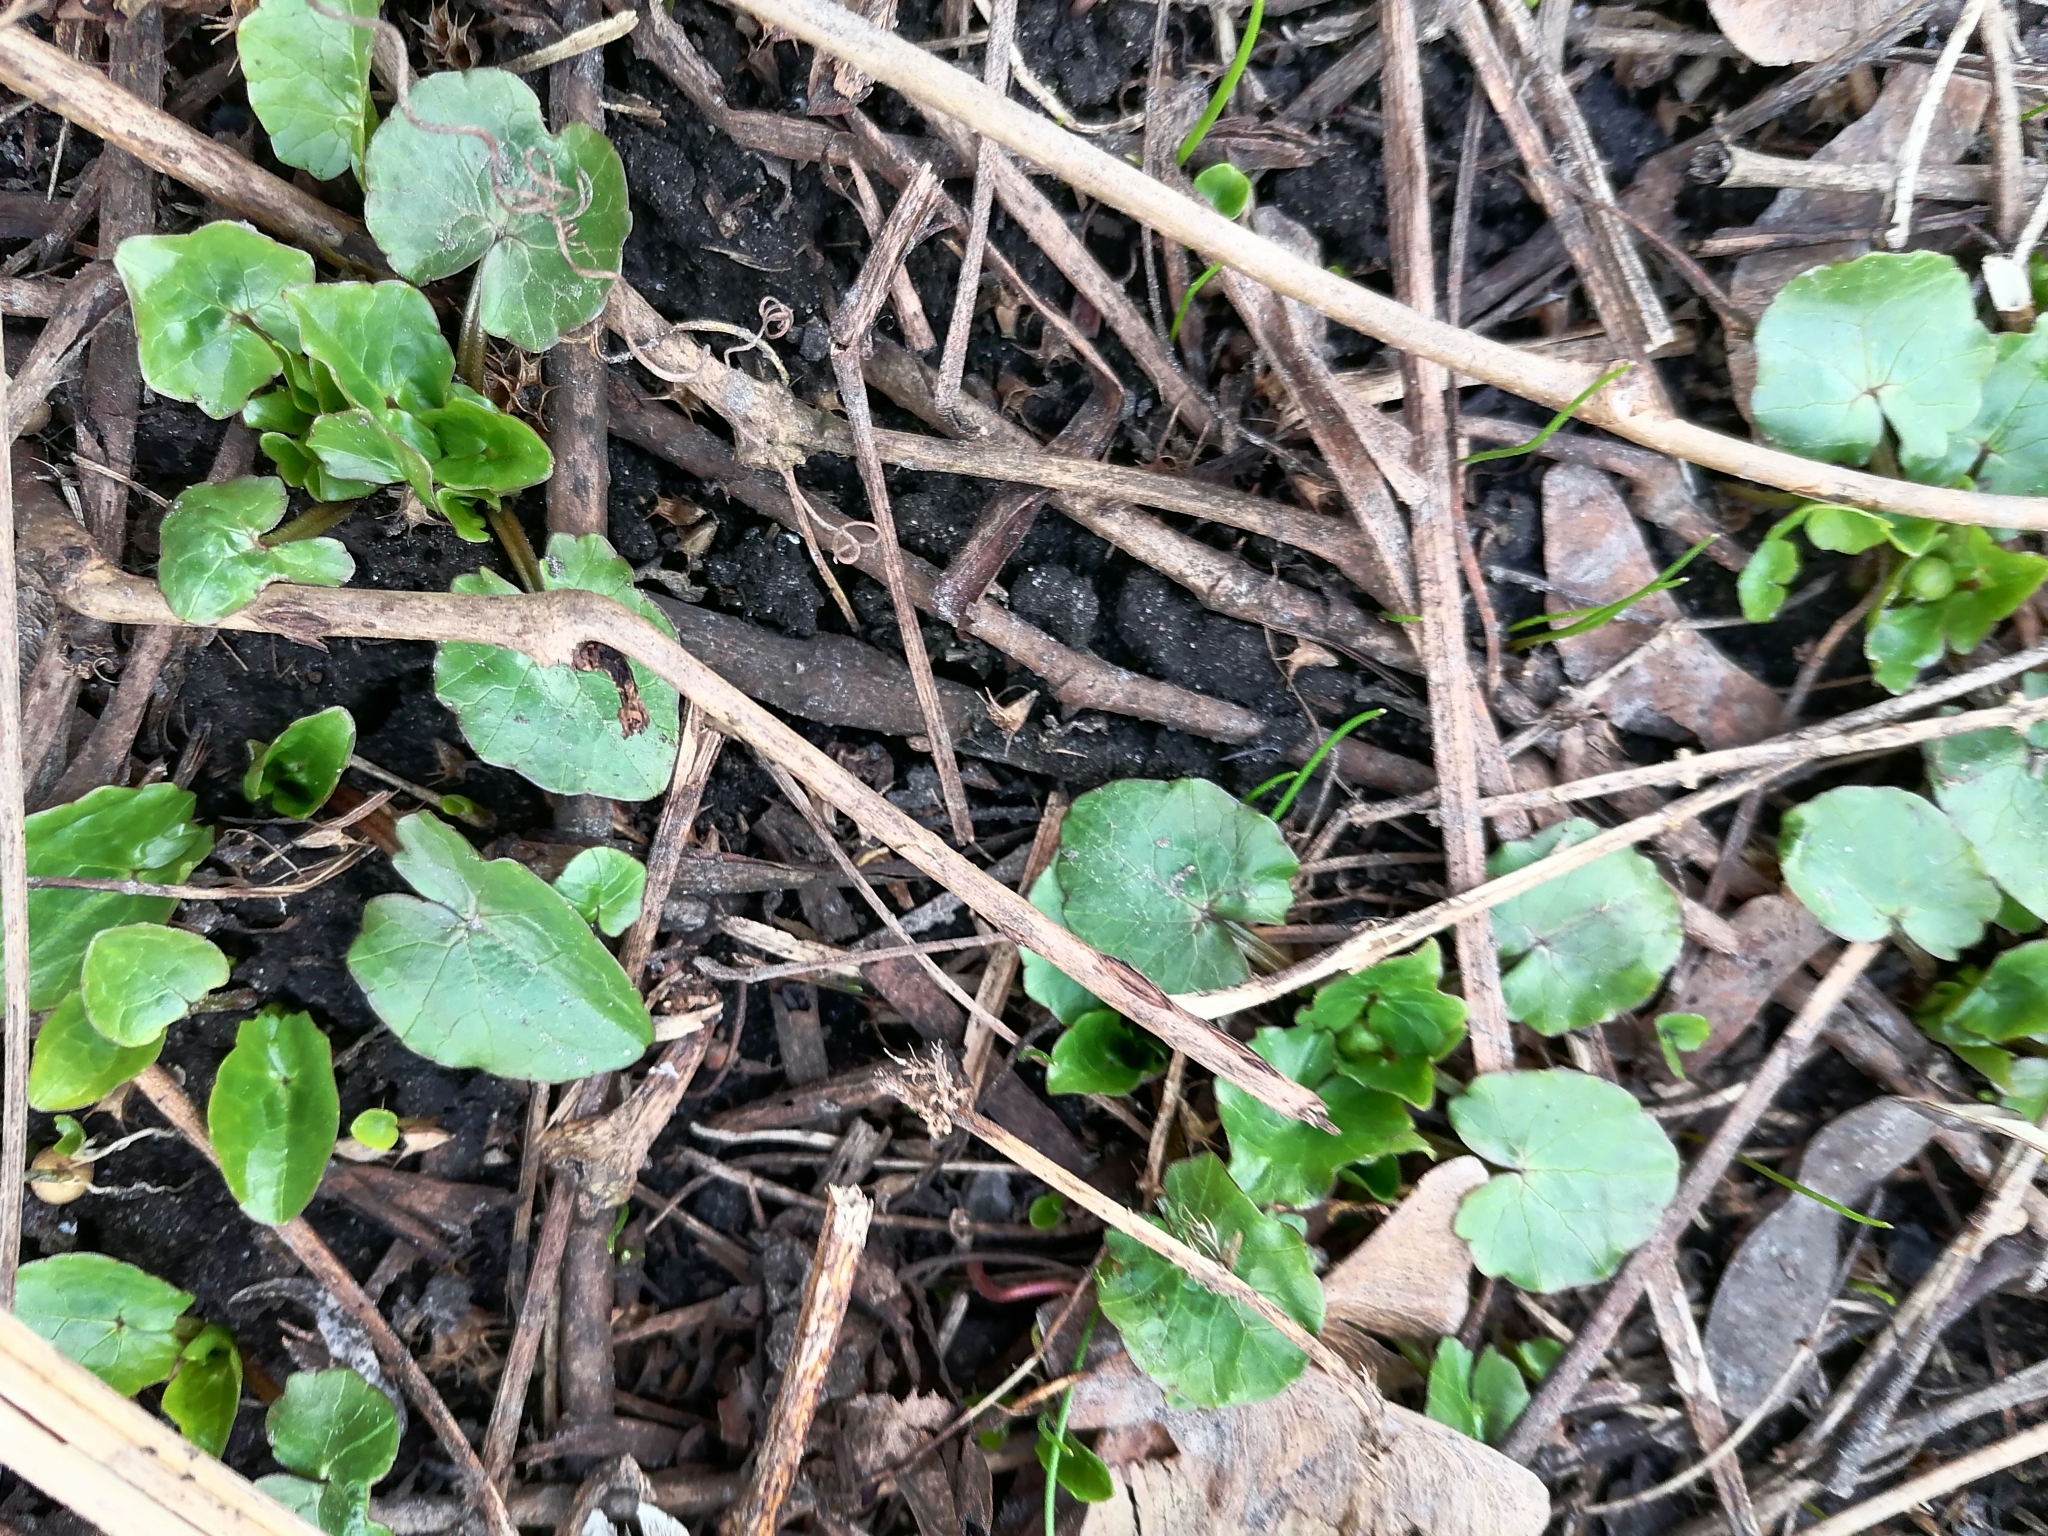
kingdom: Plantae
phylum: Tracheophyta
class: Magnoliopsida
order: Ranunculales
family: Ranunculaceae
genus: Ficaria
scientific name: Ficaria verna
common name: Lesser celandine
